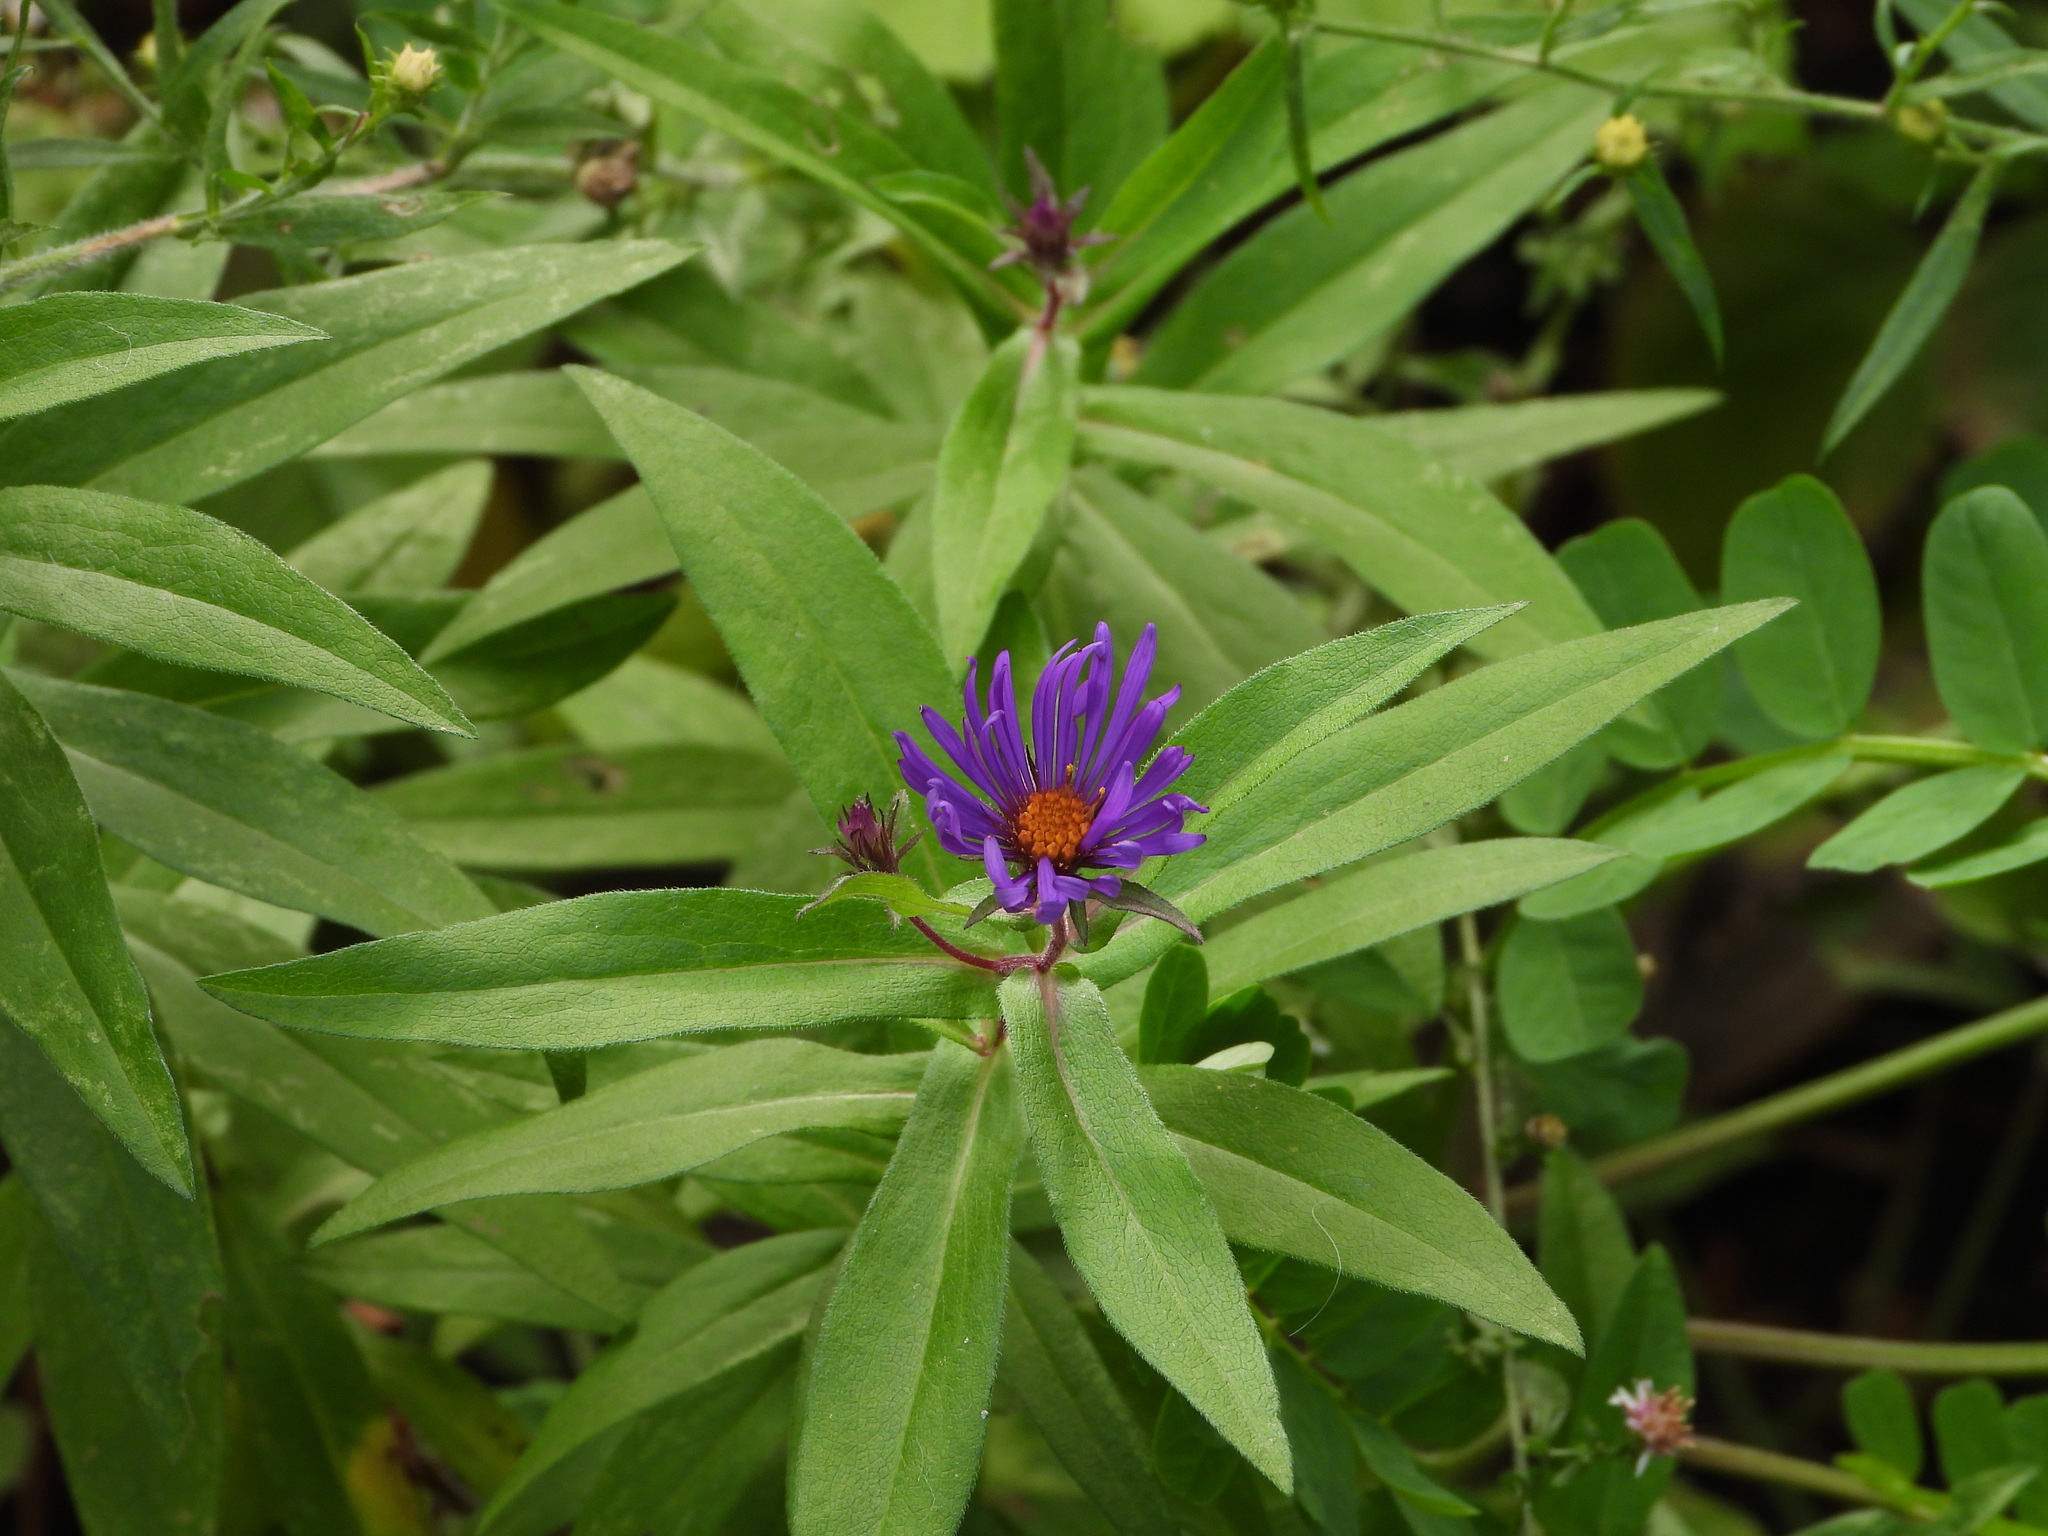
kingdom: Plantae
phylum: Tracheophyta
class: Magnoliopsida
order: Asterales
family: Asteraceae
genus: Symphyotrichum
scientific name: Symphyotrichum novae-angliae
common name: Michaelmas daisy
